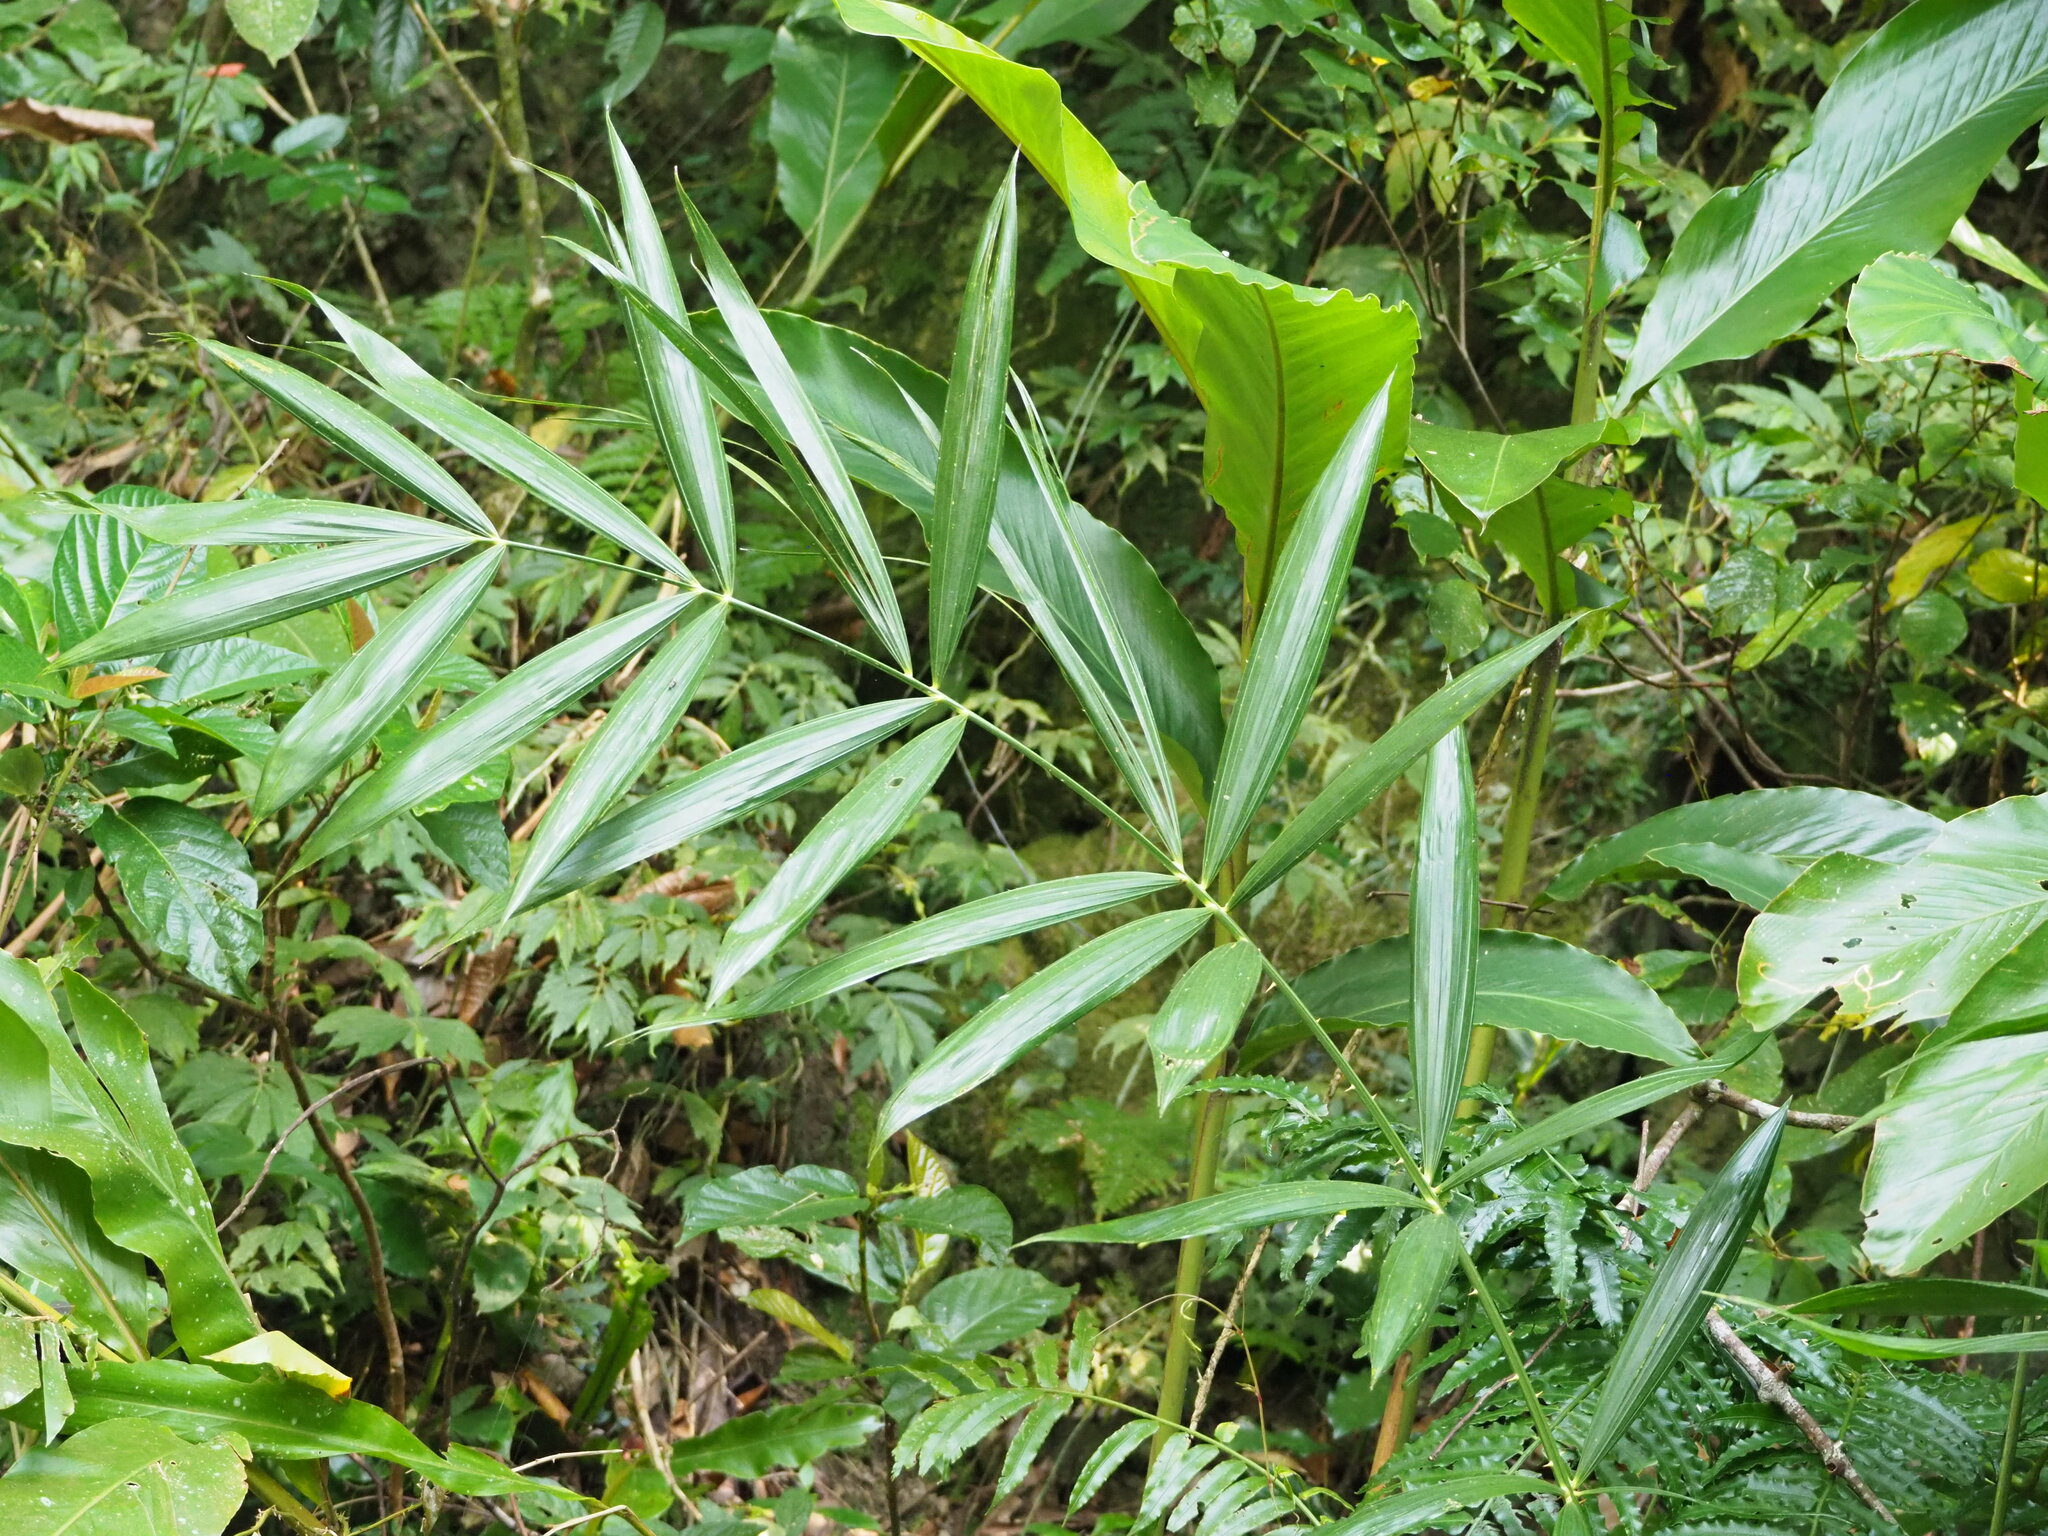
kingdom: Plantae
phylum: Tracheophyta
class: Liliopsida
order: Arecales
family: Arecaceae
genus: Calamus
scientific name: Calamus formosanus
